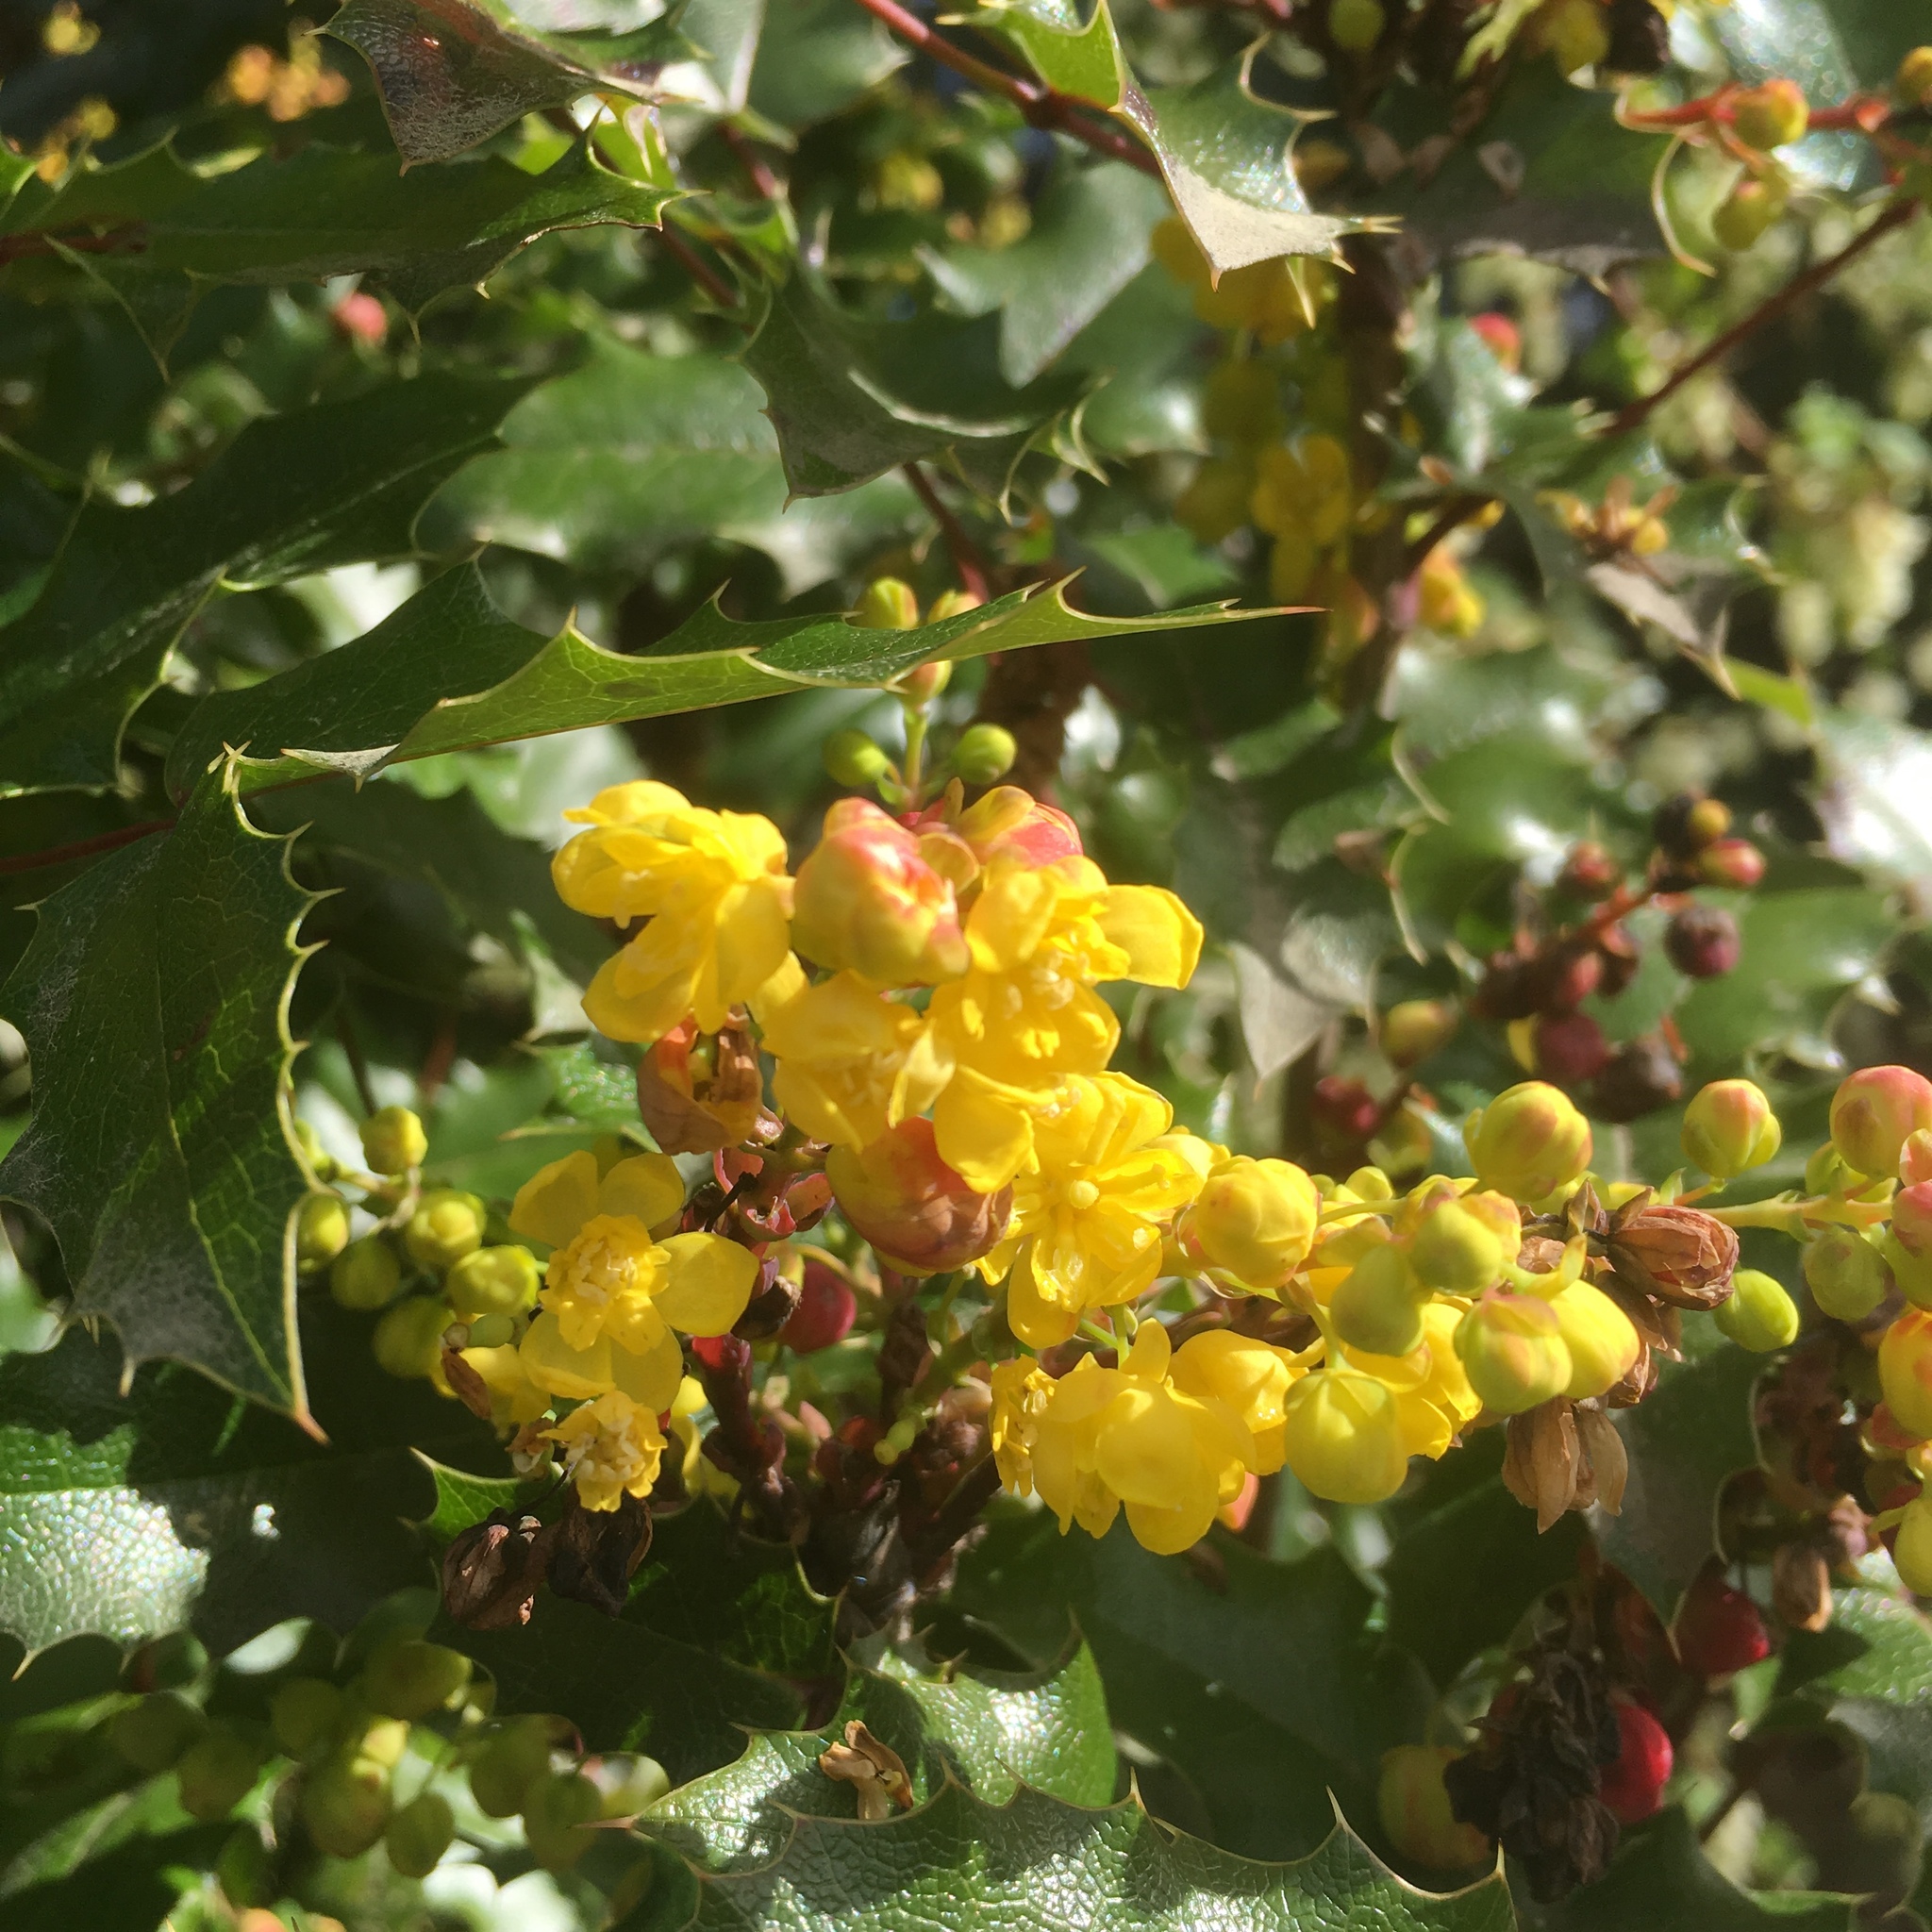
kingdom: Plantae
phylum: Tracheophyta
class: Magnoliopsida
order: Ranunculales
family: Berberidaceae
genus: Mahonia
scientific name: Mahonia aquifolium
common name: Oregon-grape
